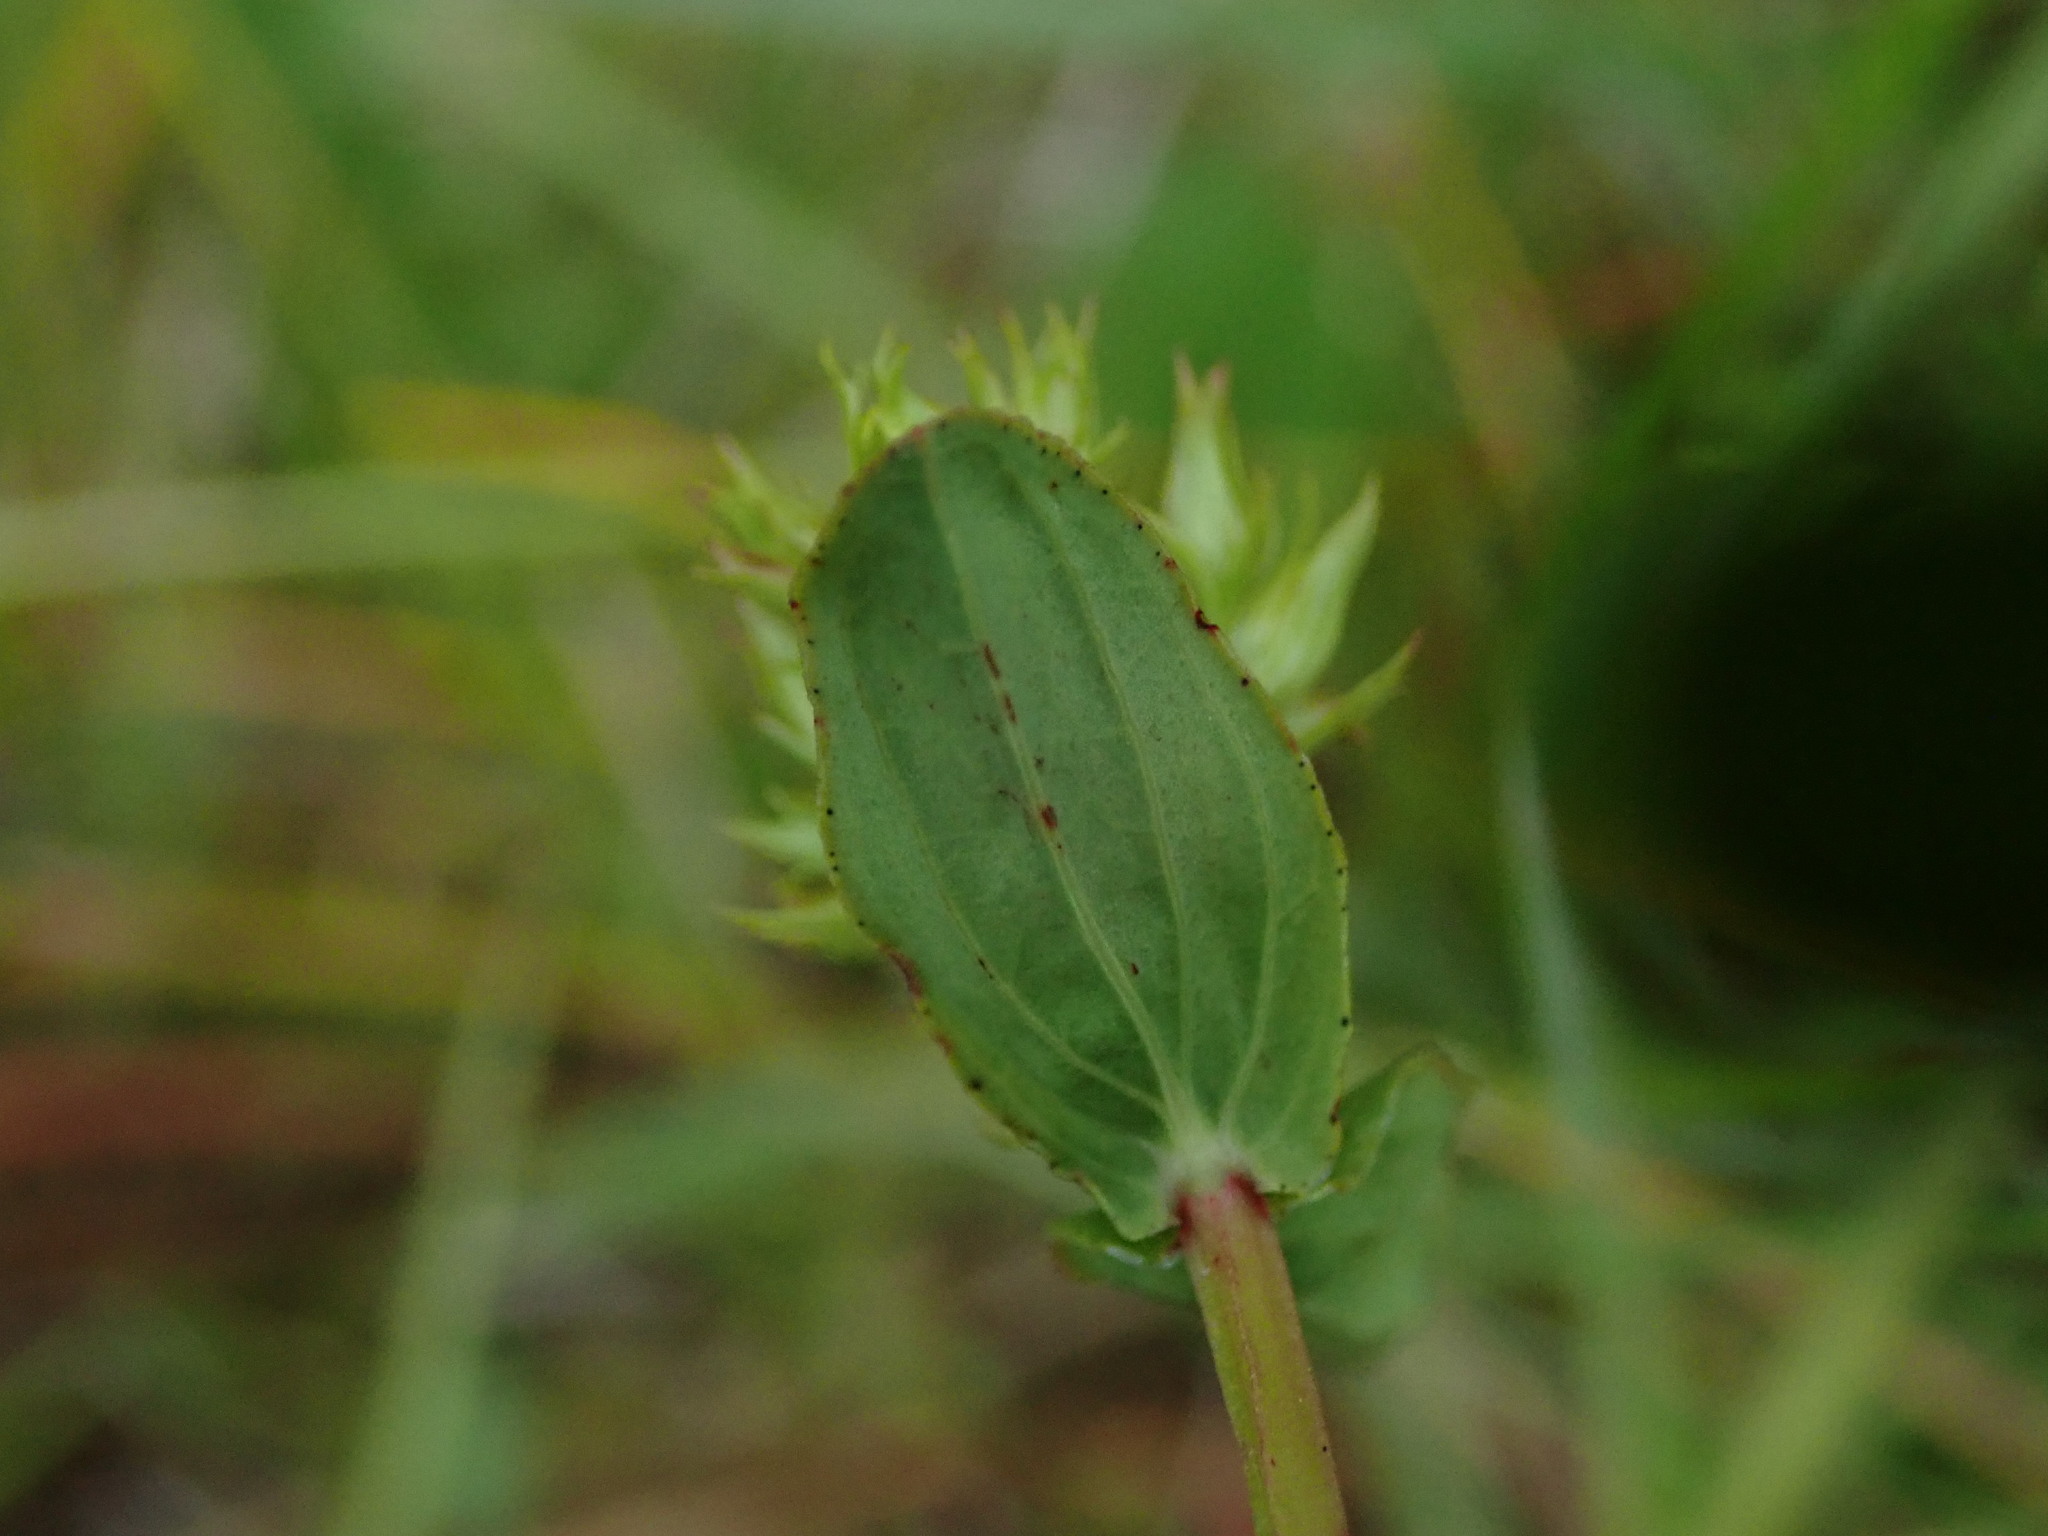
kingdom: Plantae
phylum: Tracheophyta
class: Magnoliopsida
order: Malpighiales
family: Hypericaceae
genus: Hypericum
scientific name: Hypericum tetrapterum
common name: Square-stalked st. john's-wort
